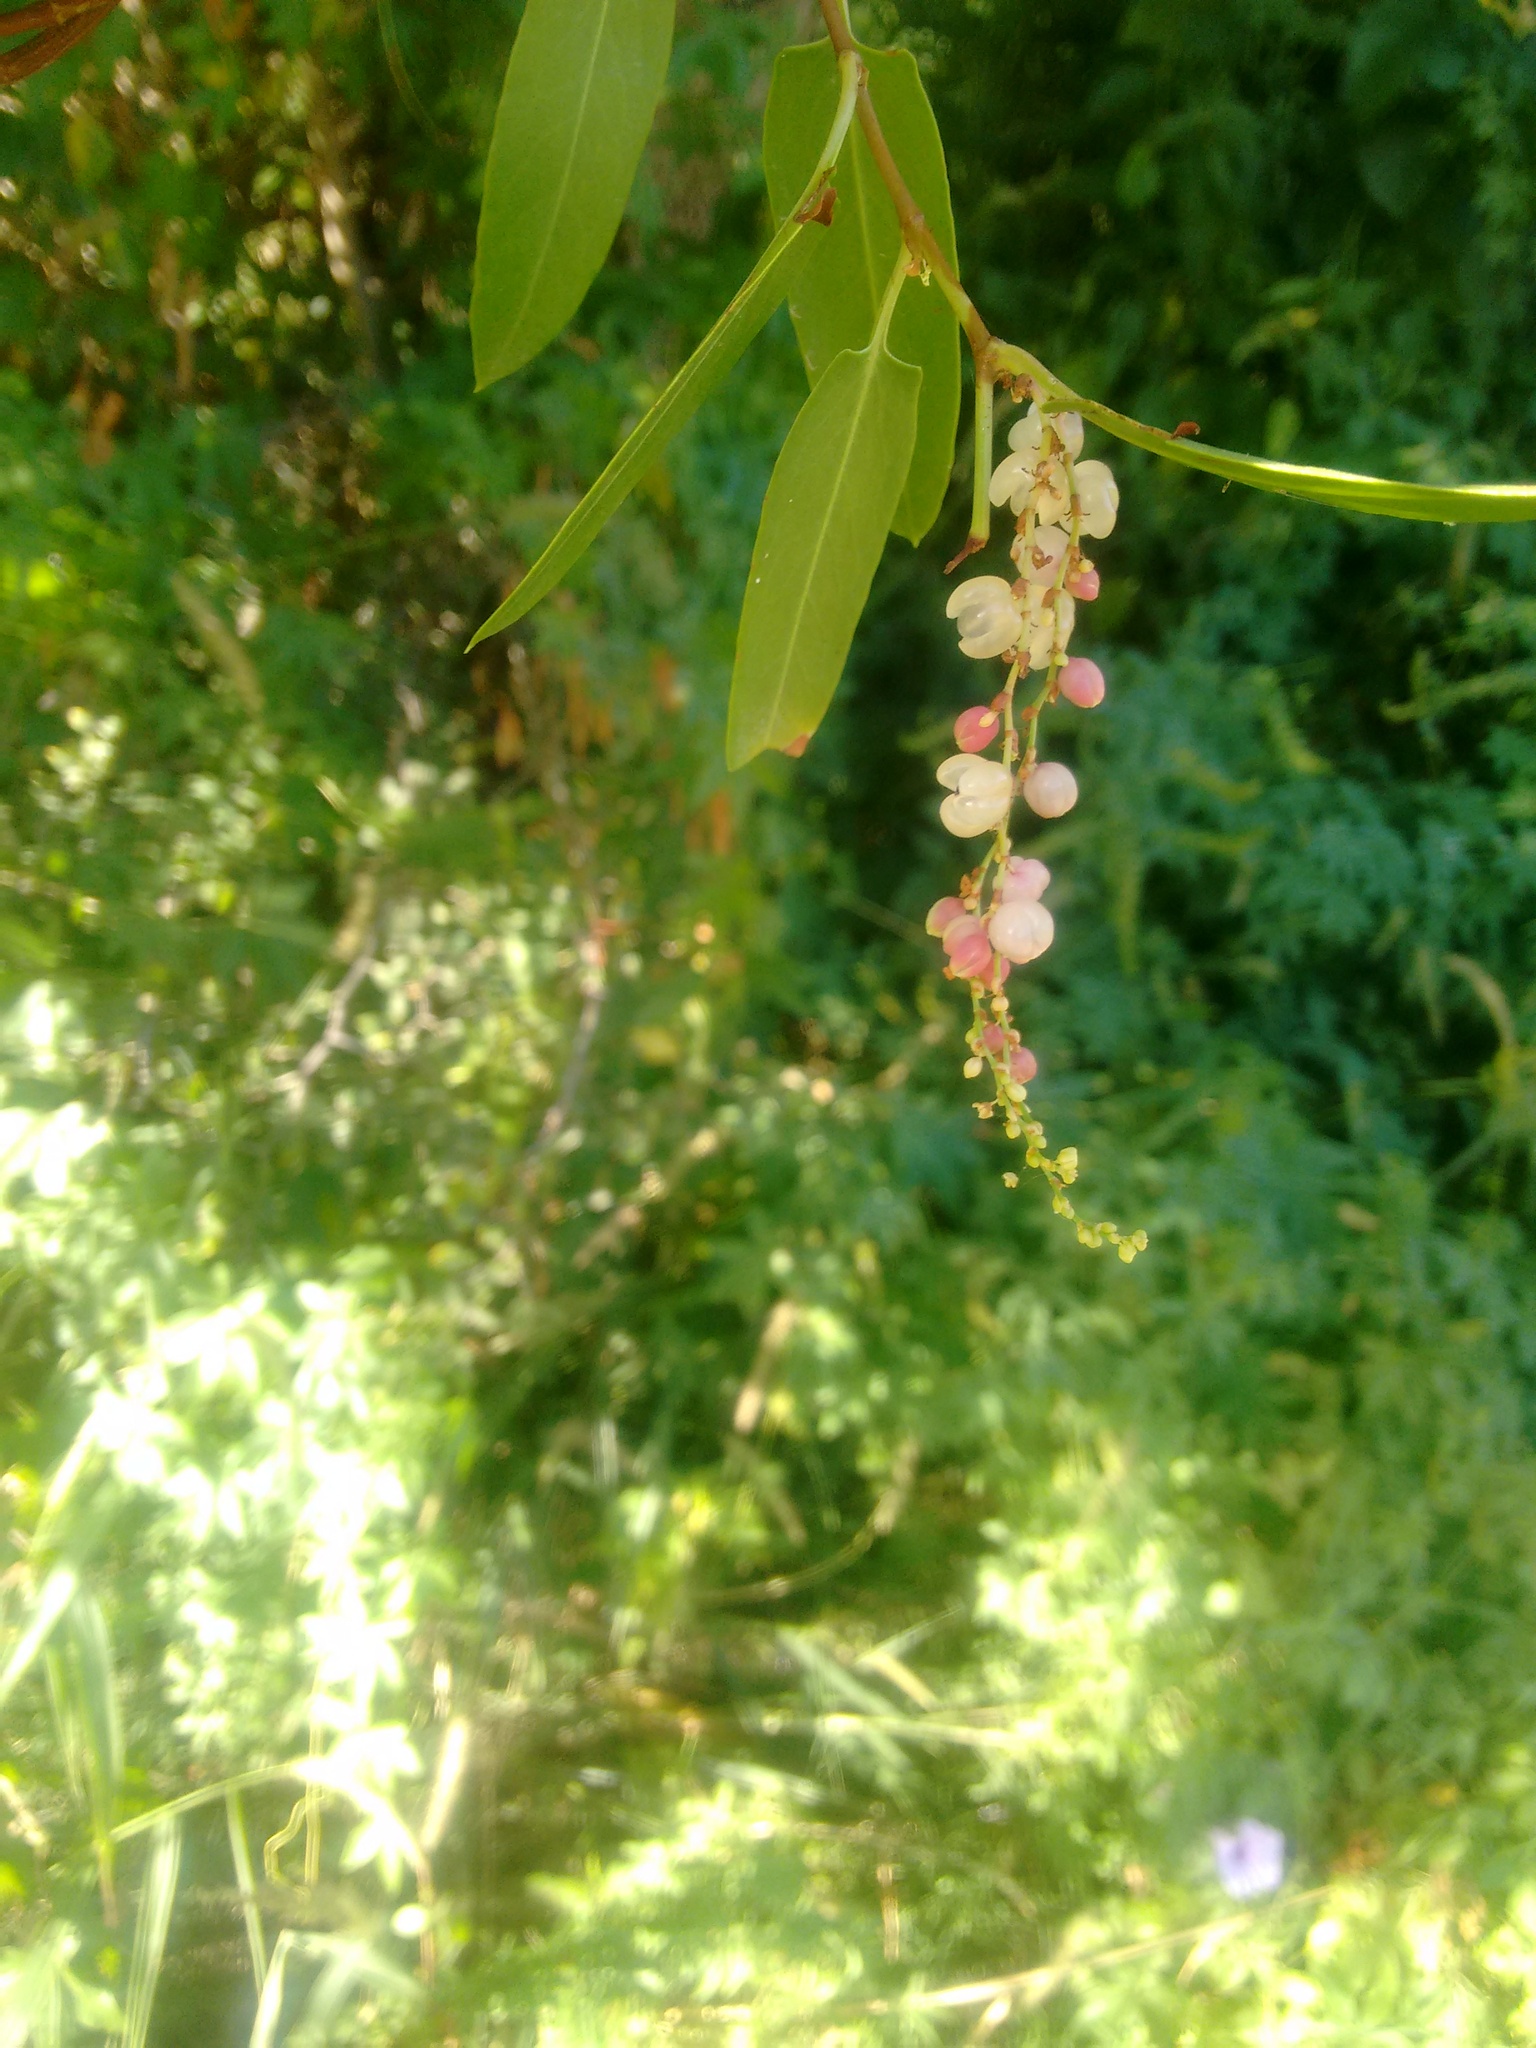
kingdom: Plantae
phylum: Tracheophyta
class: Magnoliopsida
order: Caryophyllales
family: Polygonaceae
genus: Muehlenbeckia
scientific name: Muehlenbeckia sagittifolia
